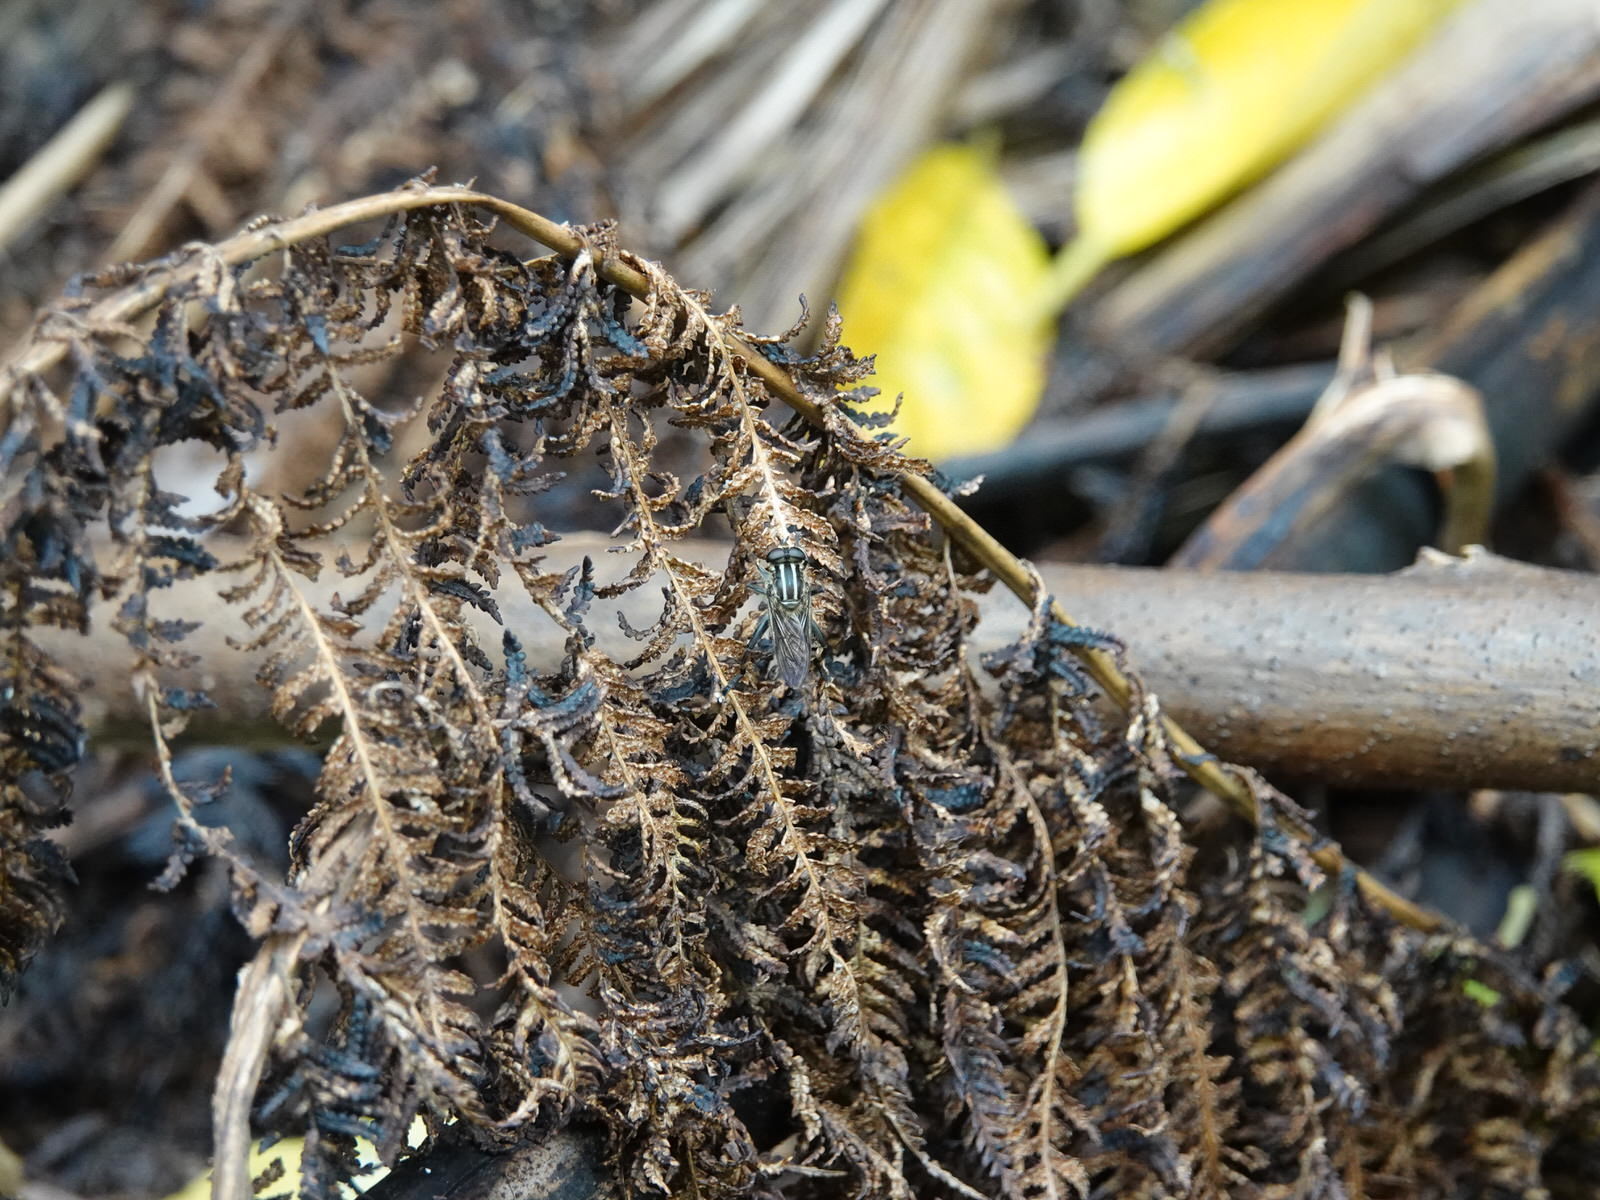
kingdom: Animalia
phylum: Arthropoda
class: Insecta
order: Diptera
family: Syrphidae
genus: Orthoprosopa
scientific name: Orthoprosopa bilineata
